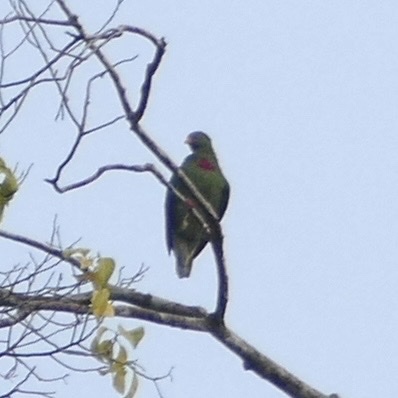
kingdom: Animalia
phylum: Chordata
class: Aves
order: Columbiformes
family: Columbidae
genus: Ptilinopus
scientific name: Ptilinopus viridis
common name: Claret-breasted fruit dove
